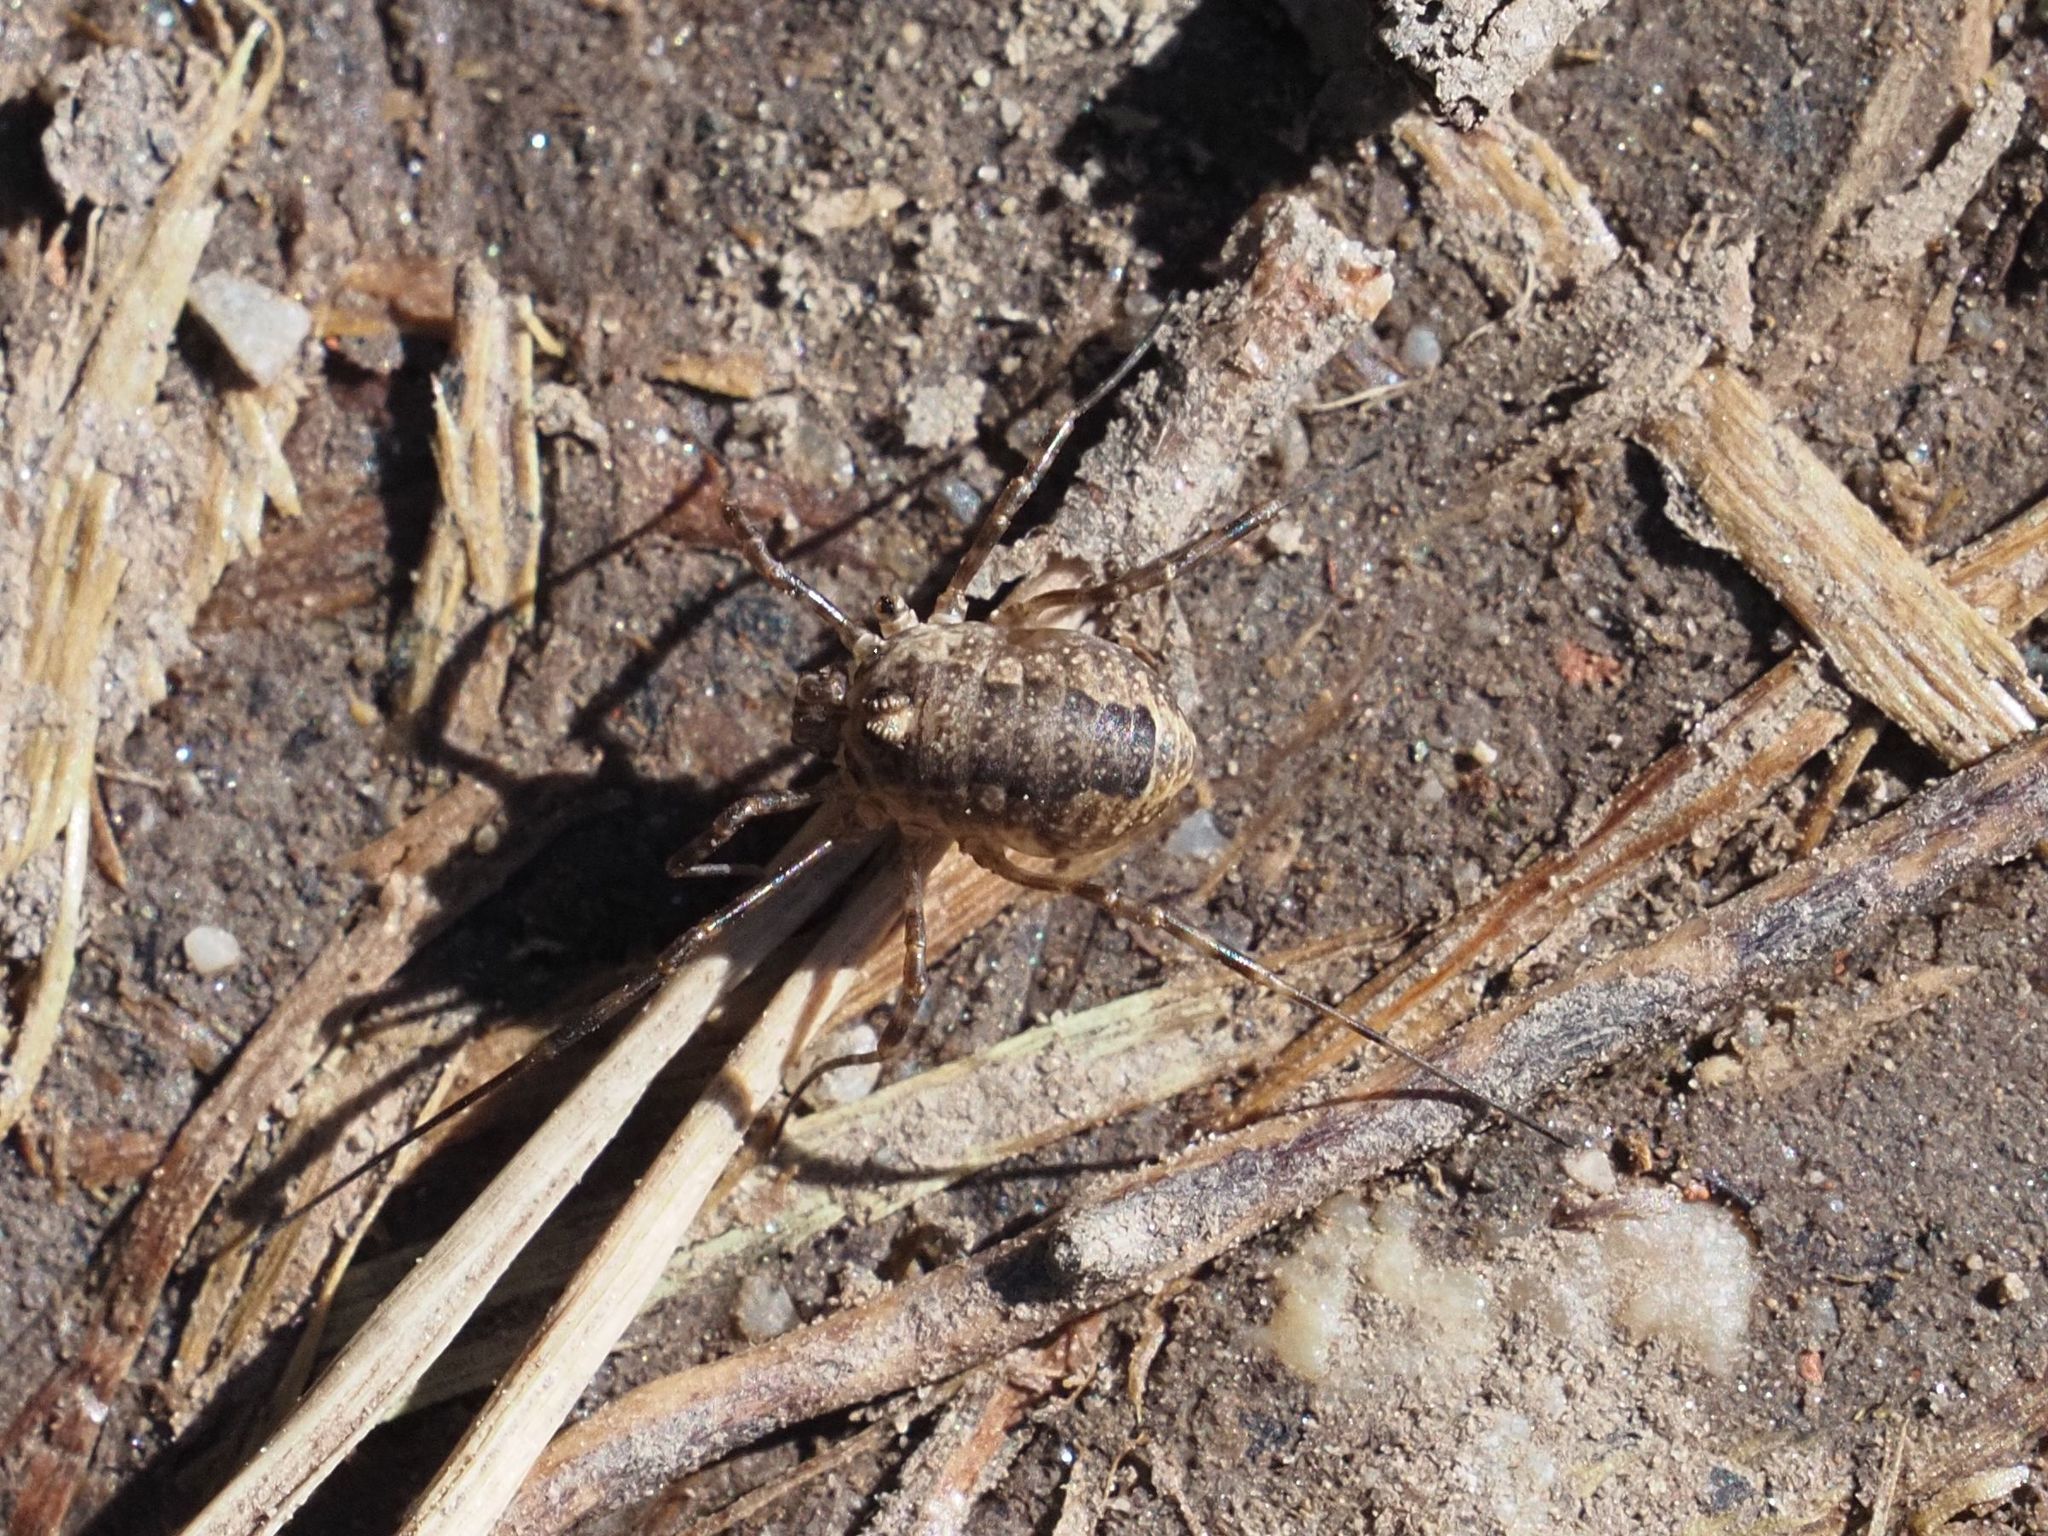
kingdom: Animalia
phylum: Arthropoda
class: Arachnida
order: Opiliones
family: Phalangiidae
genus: Rilaena
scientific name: Rilaena triangularis
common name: Spring harvestman
